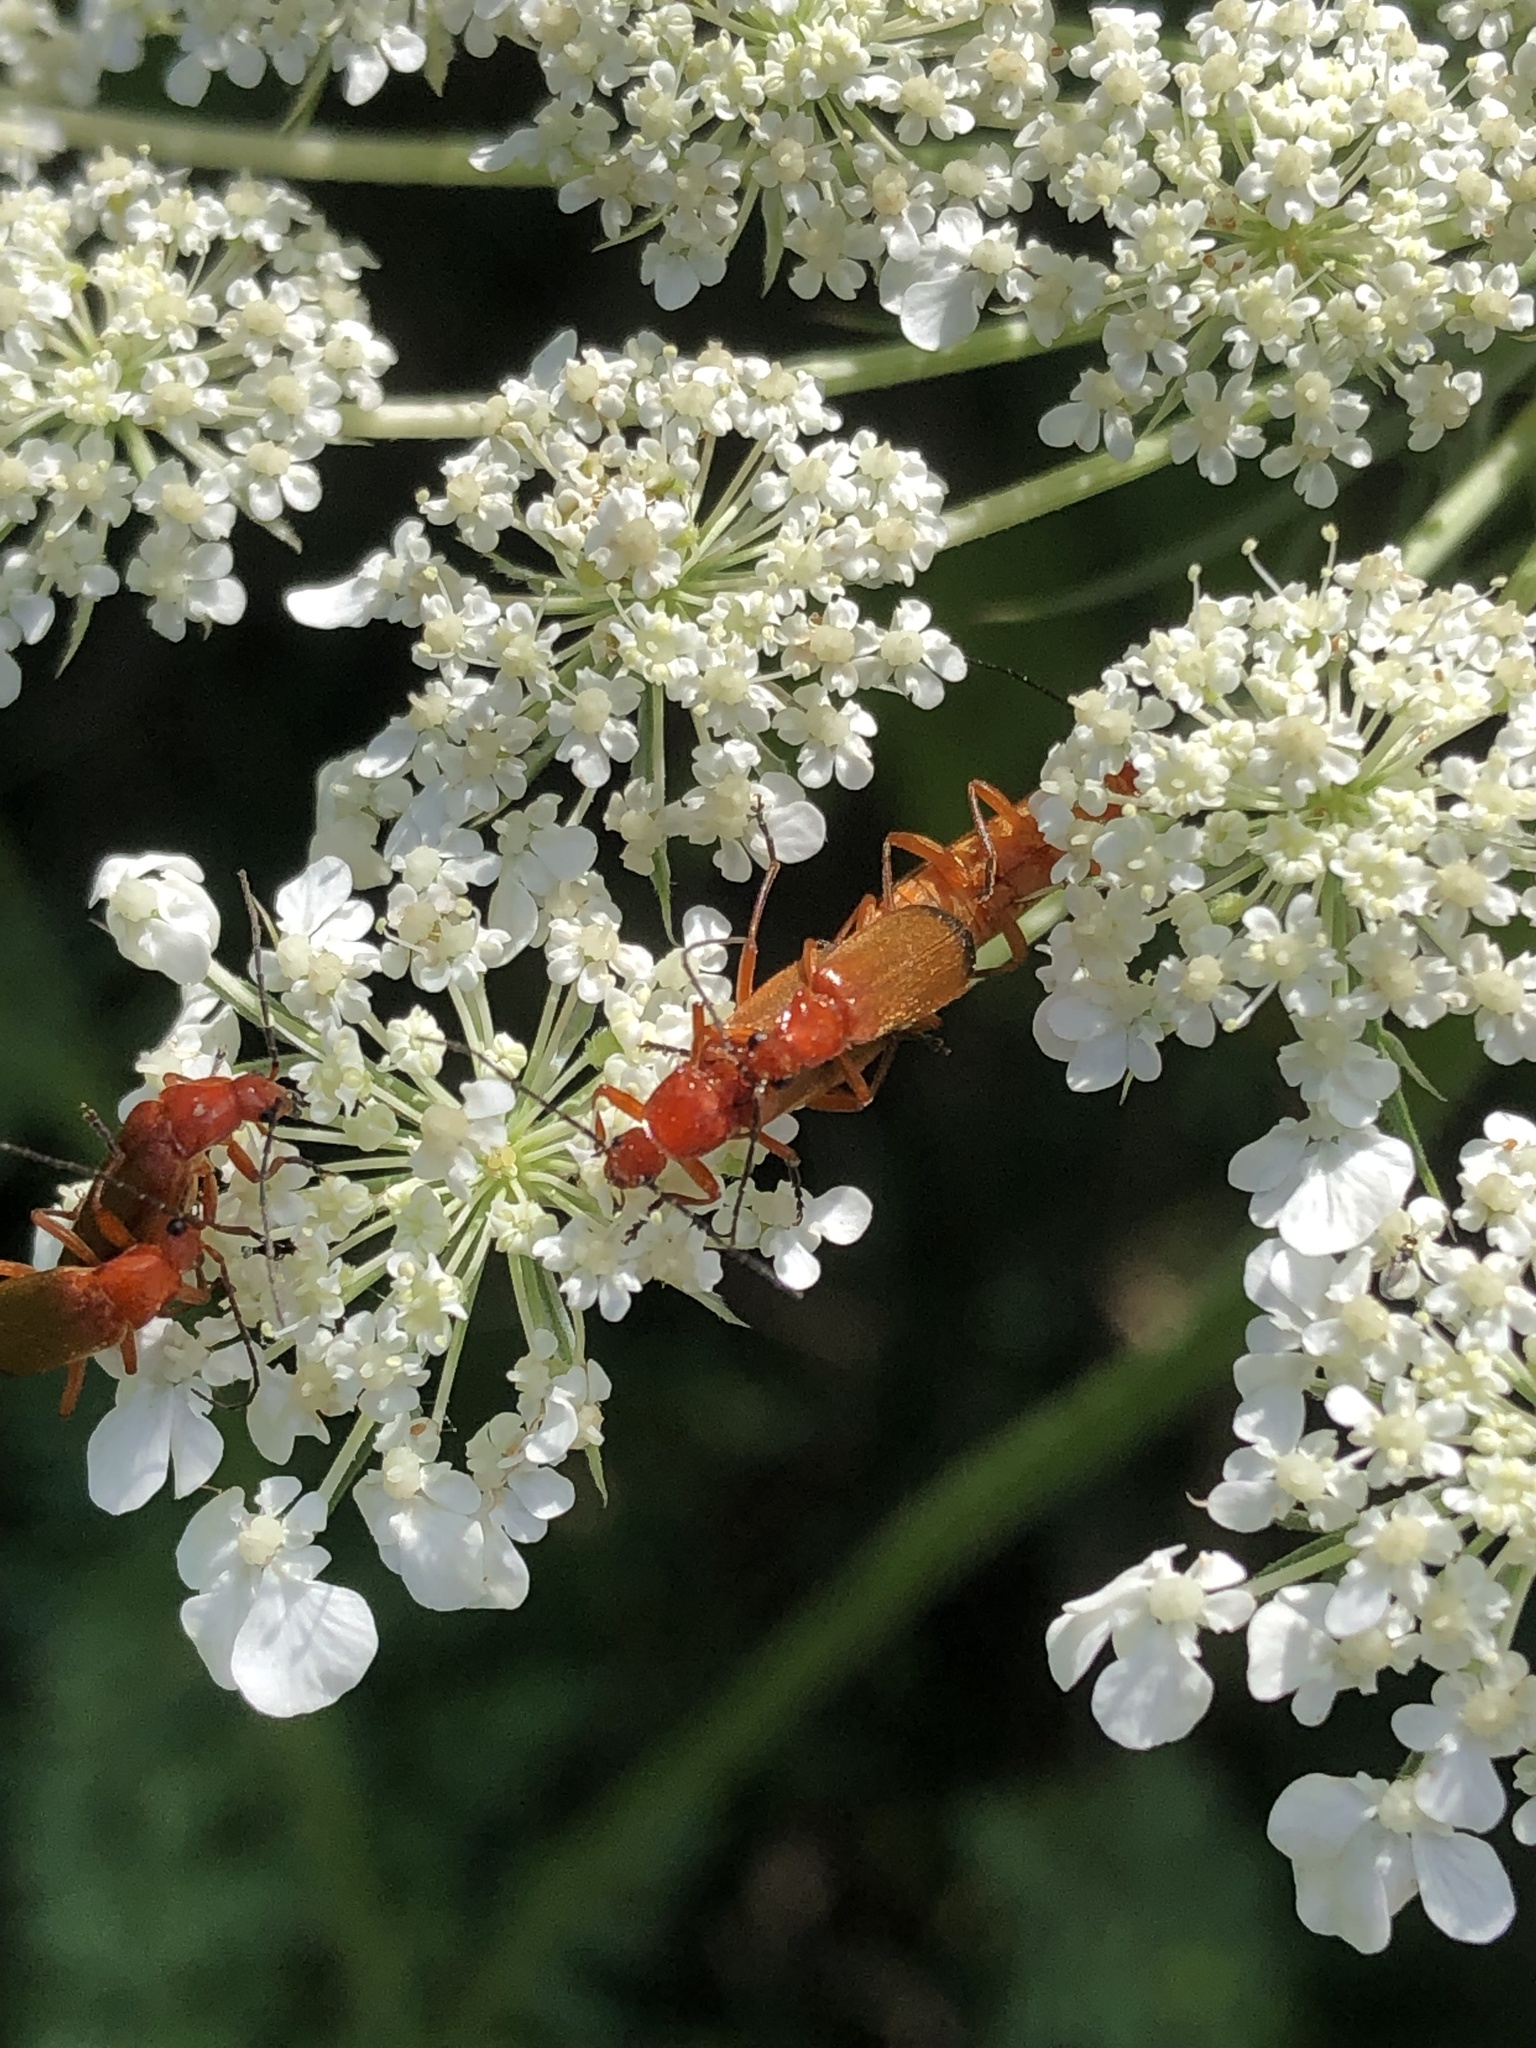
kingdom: Animalia
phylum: Arthropoda
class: Insecta
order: Coleoptera
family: Cantharidae
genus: Rhagonycha
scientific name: Rhagonycha fulva
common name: Common red soldier beetle
